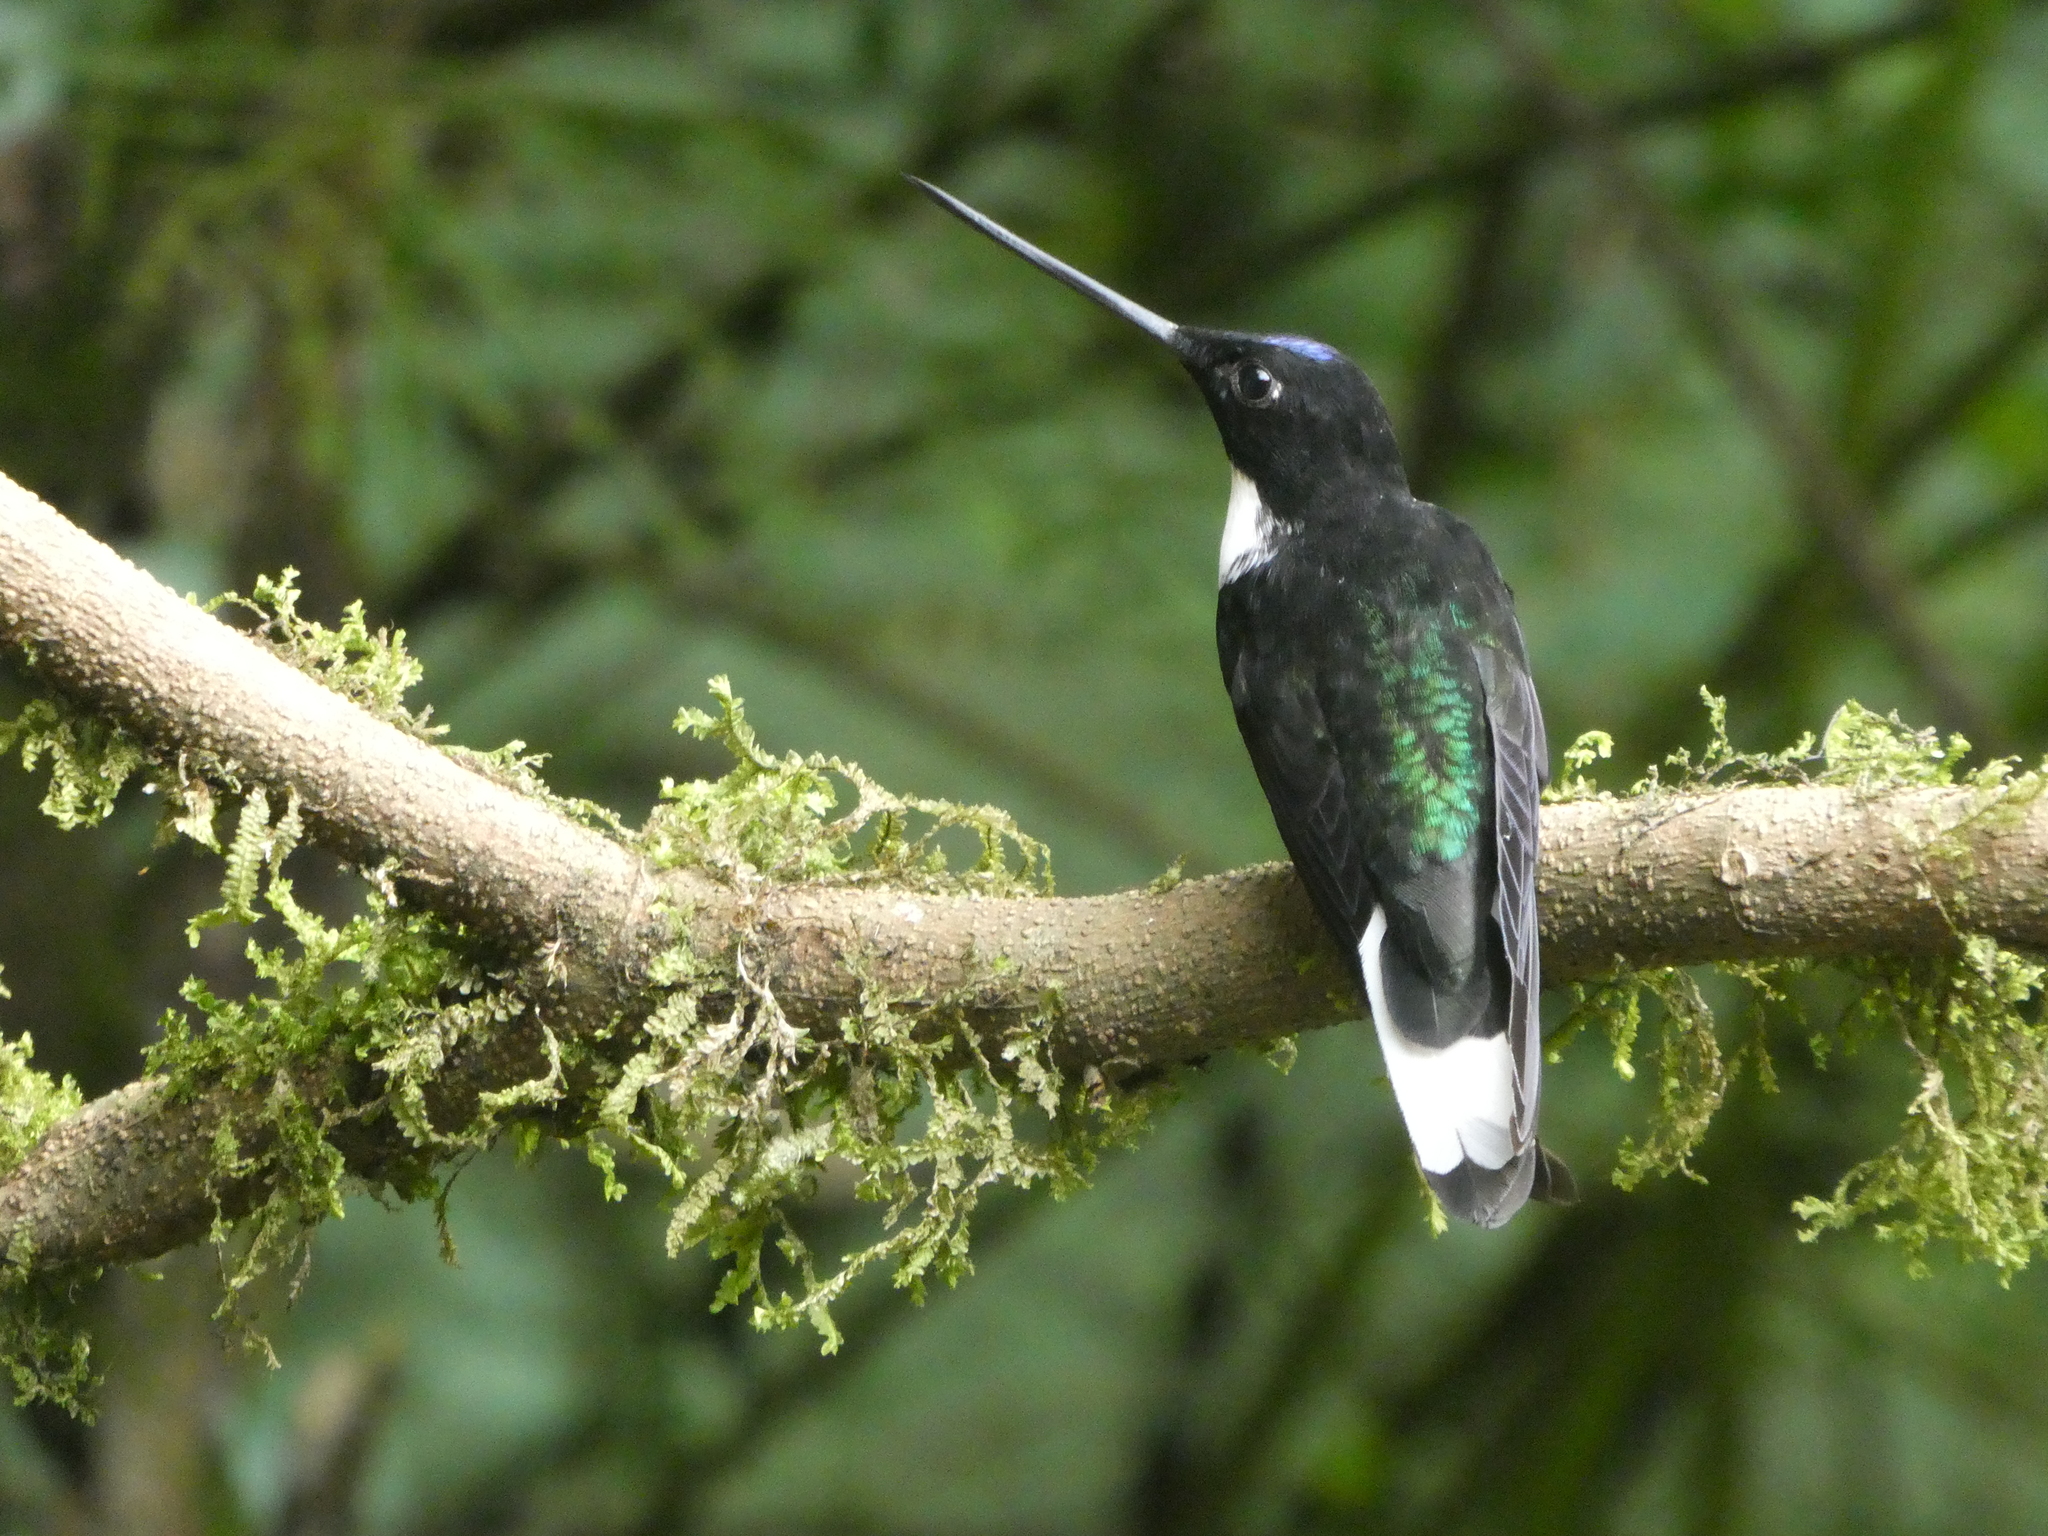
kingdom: Animalia
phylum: Chordata
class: Aves
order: Apodiformes
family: Trochilidae
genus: Coeligena
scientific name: Coeligena torquata
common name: Collared inca
